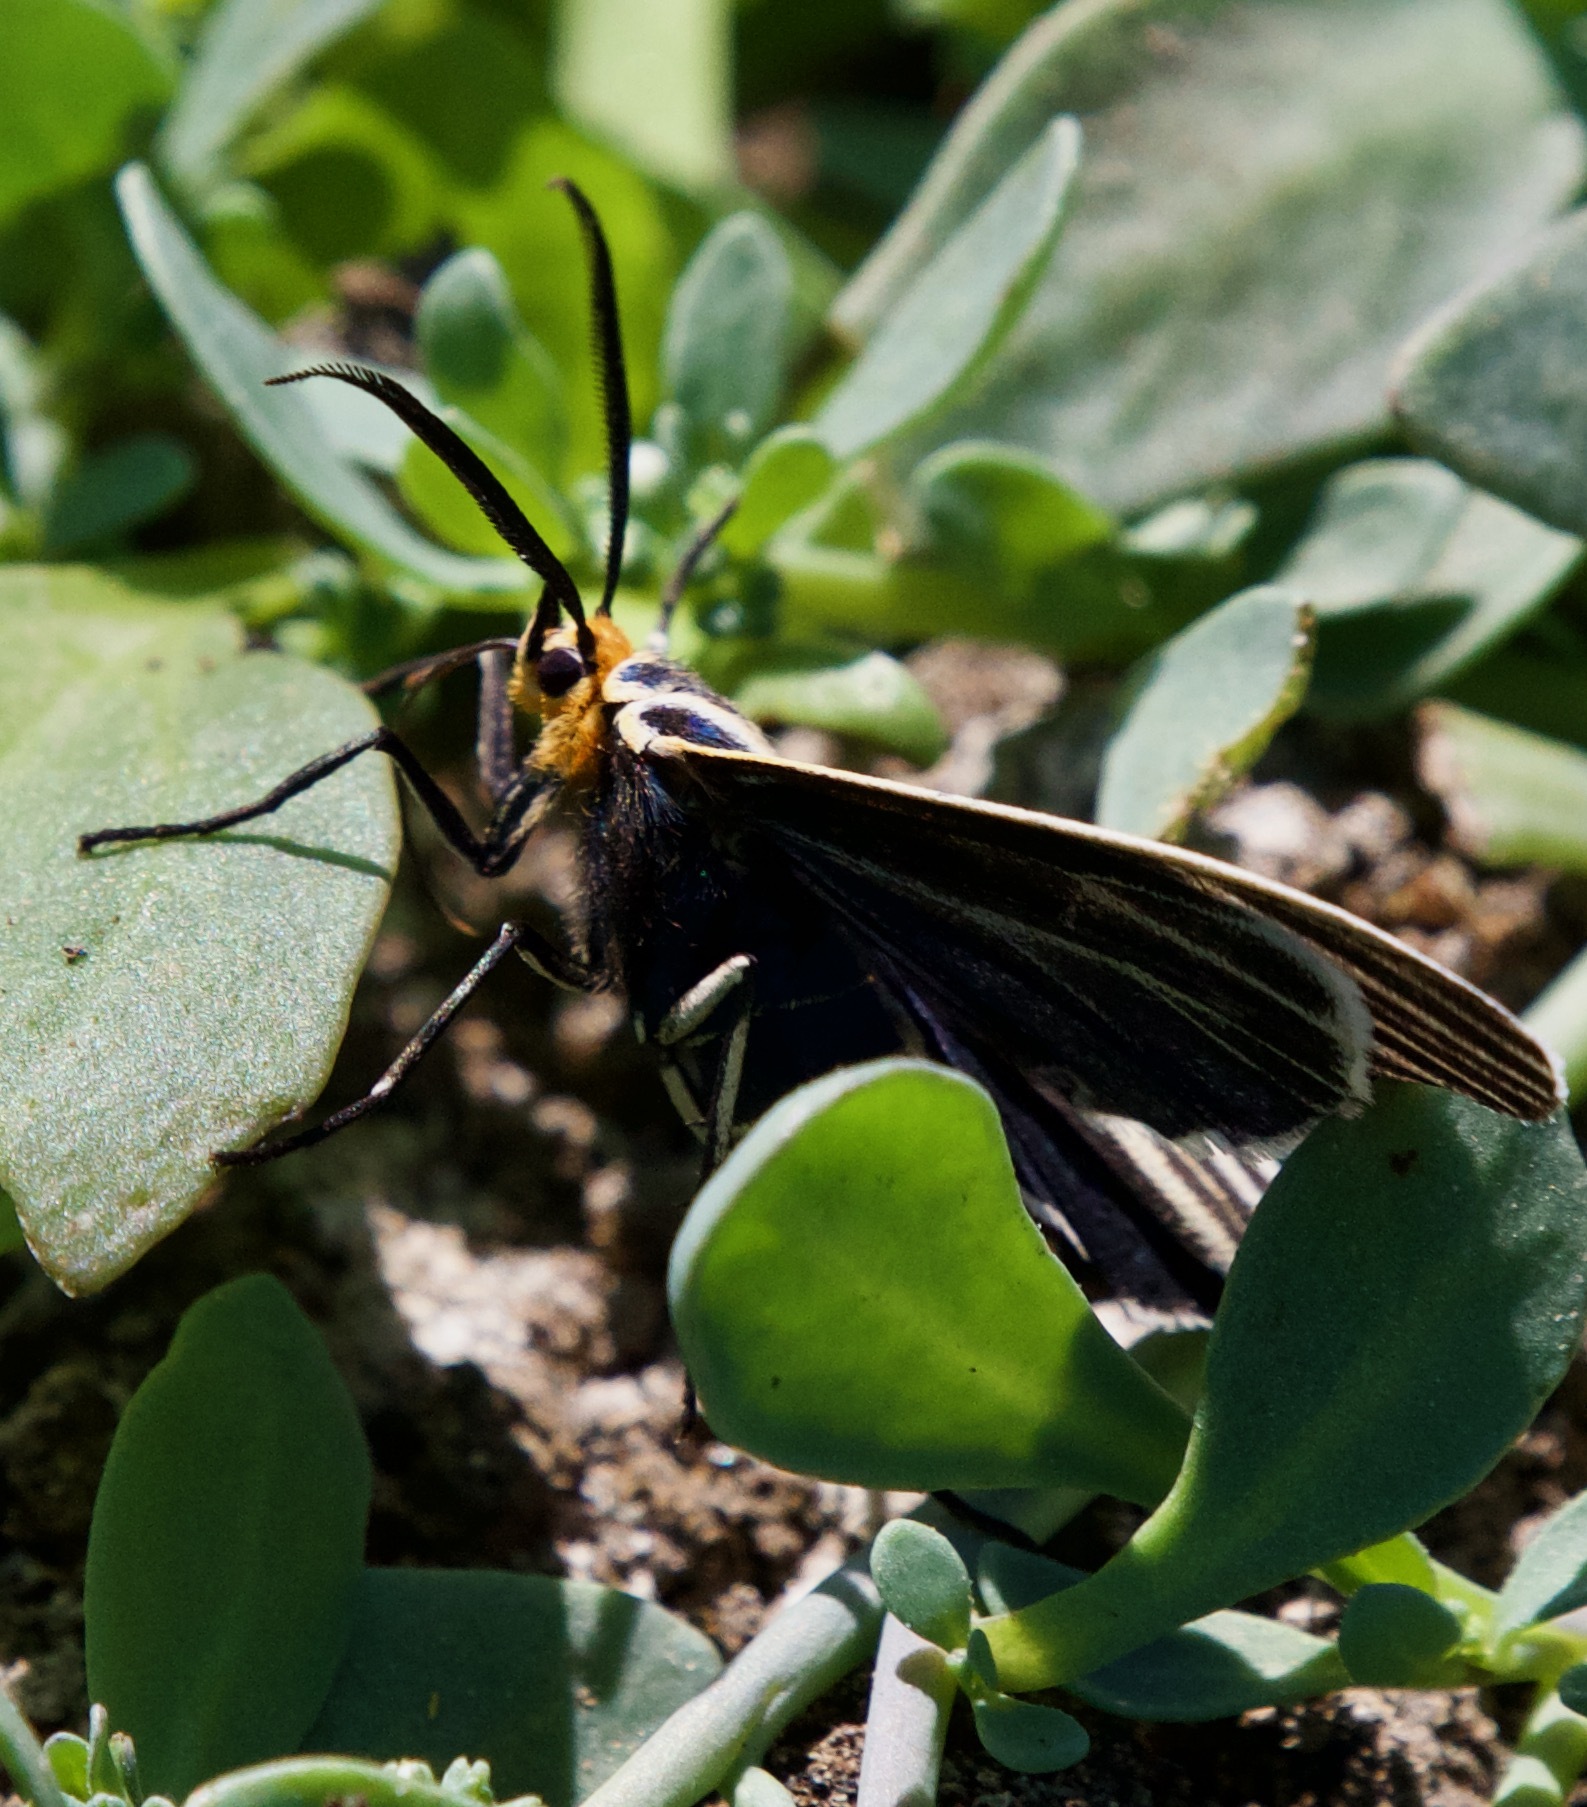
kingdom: Animalia
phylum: Arthropoda
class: Insecta
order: Lepidoptera
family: Erebidae
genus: Ctenucha
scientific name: Ctenucha vittigerum
